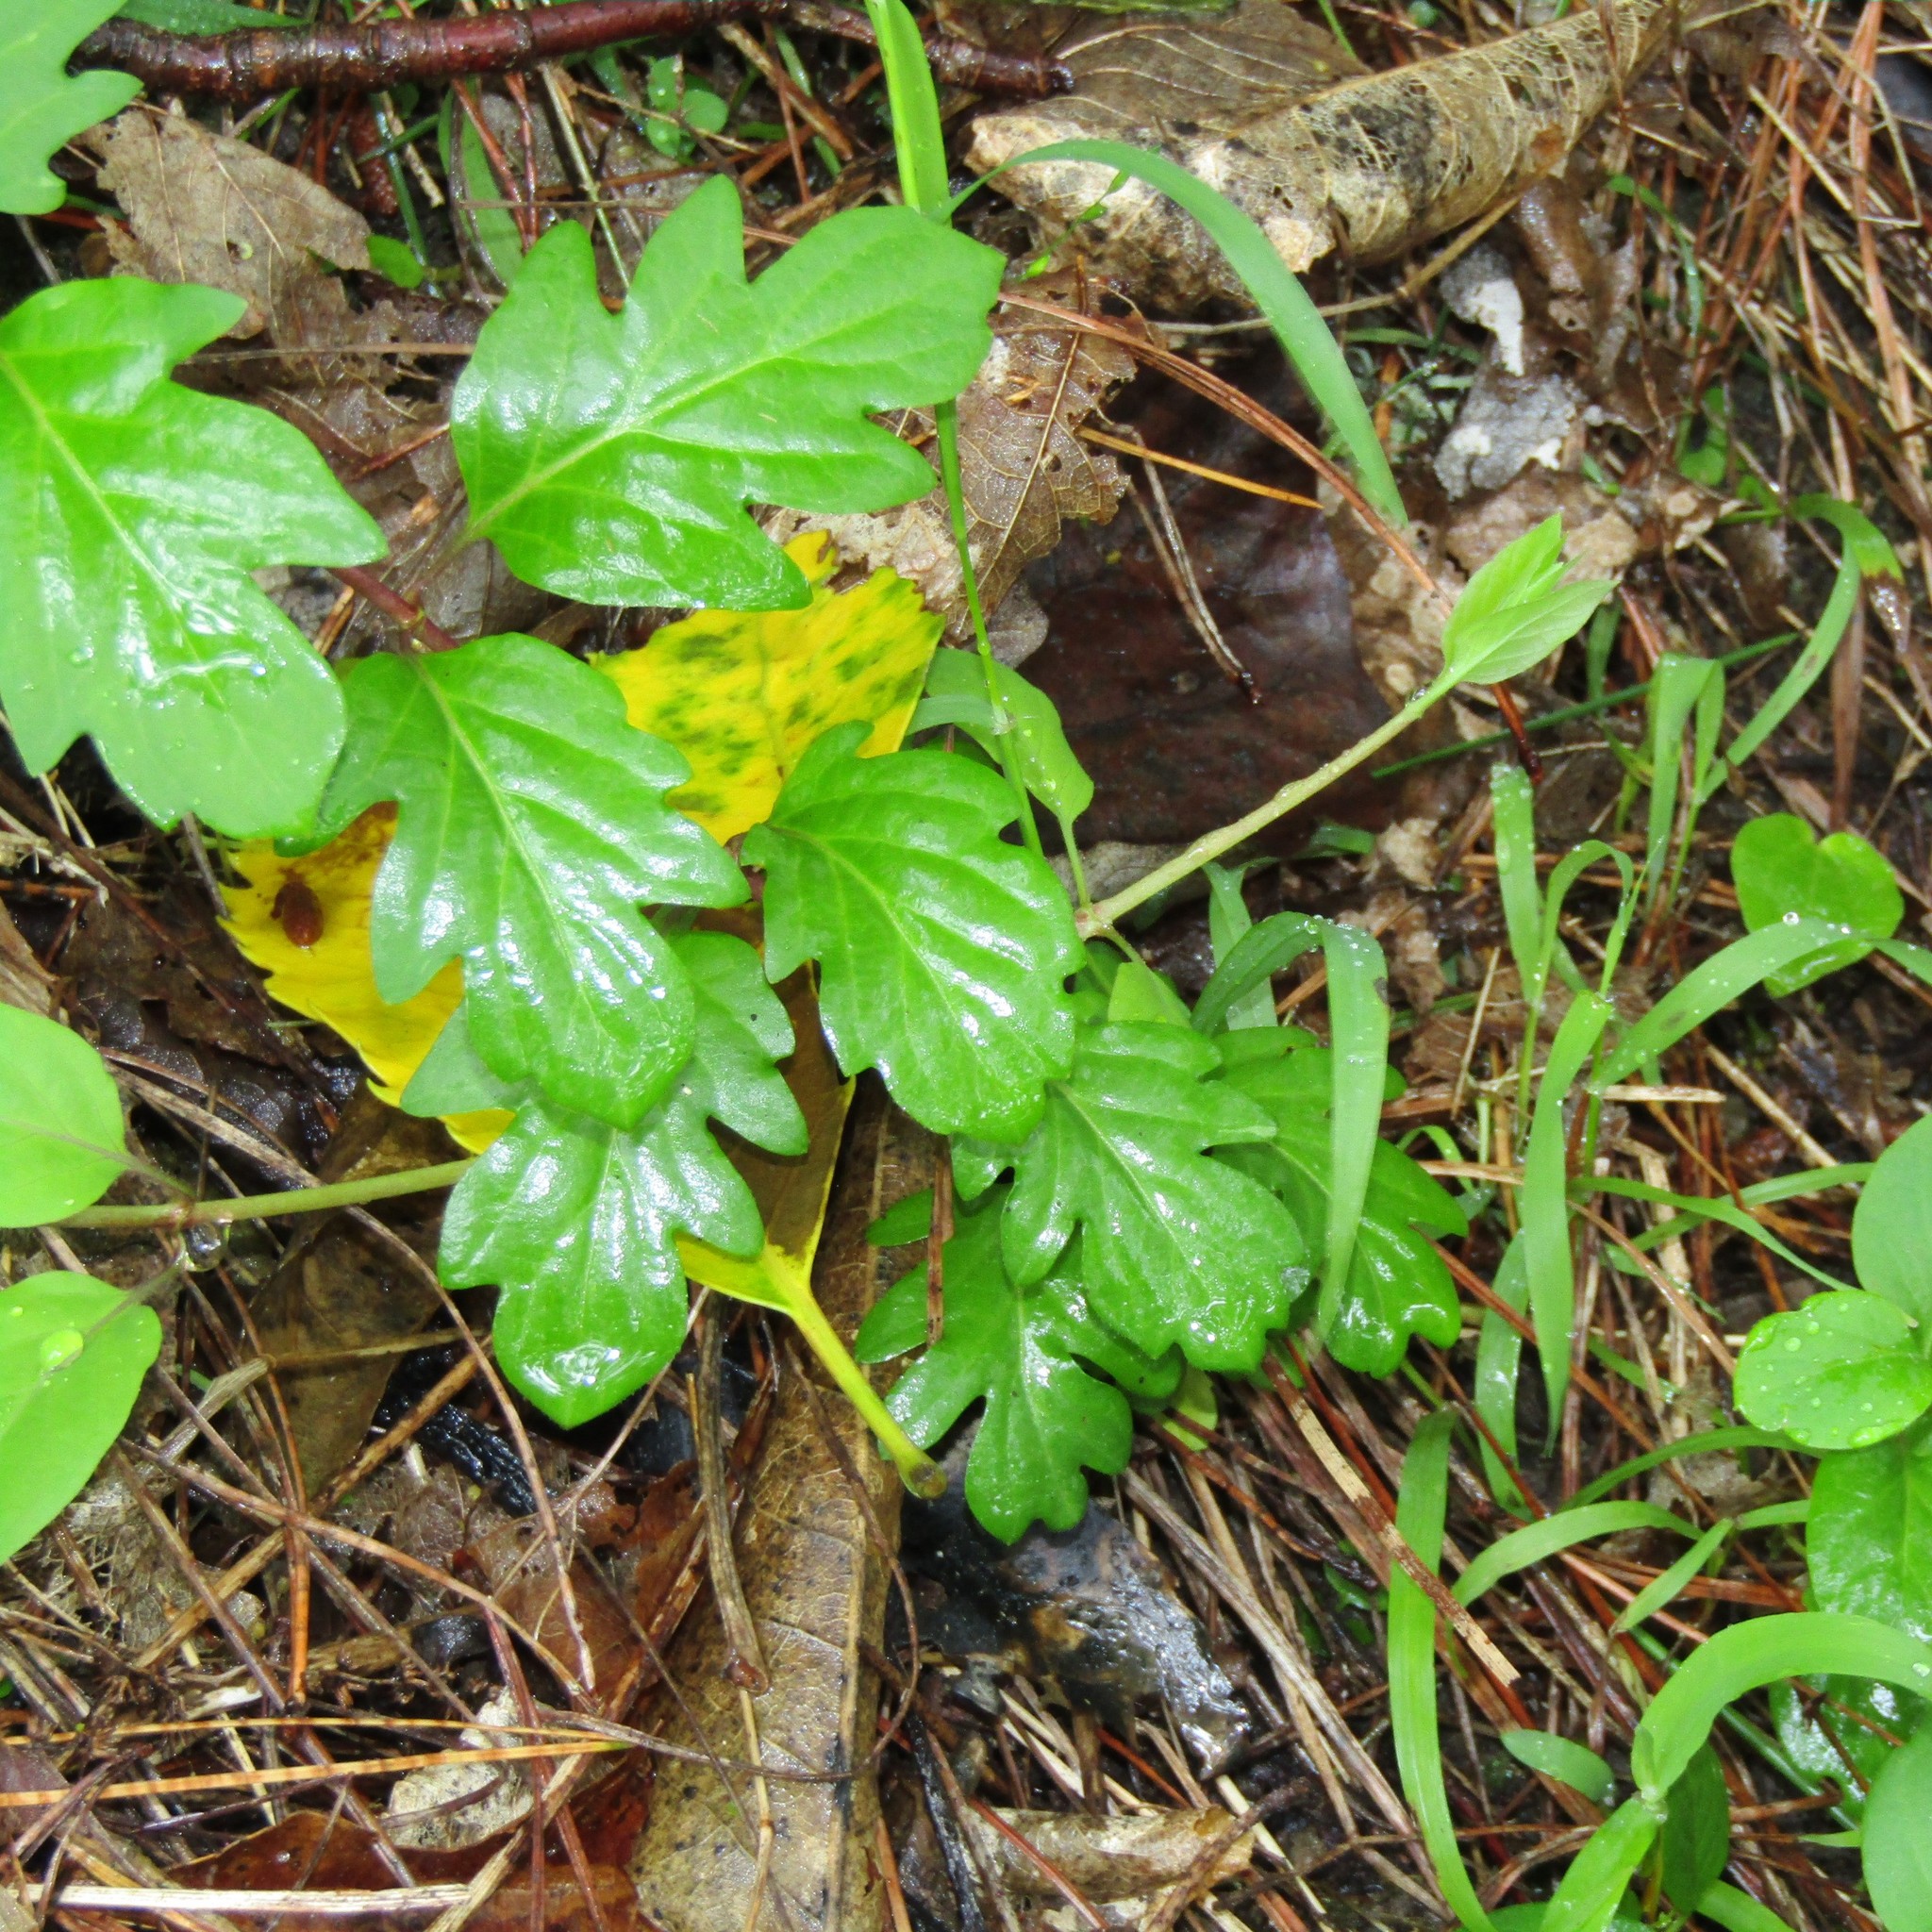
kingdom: Plantae
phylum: Tracheophyta
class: Magnoliopsida
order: Lamiales
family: Acanthaceae
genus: Acanthus
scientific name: Acanthus mollis
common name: Bear's-breech
